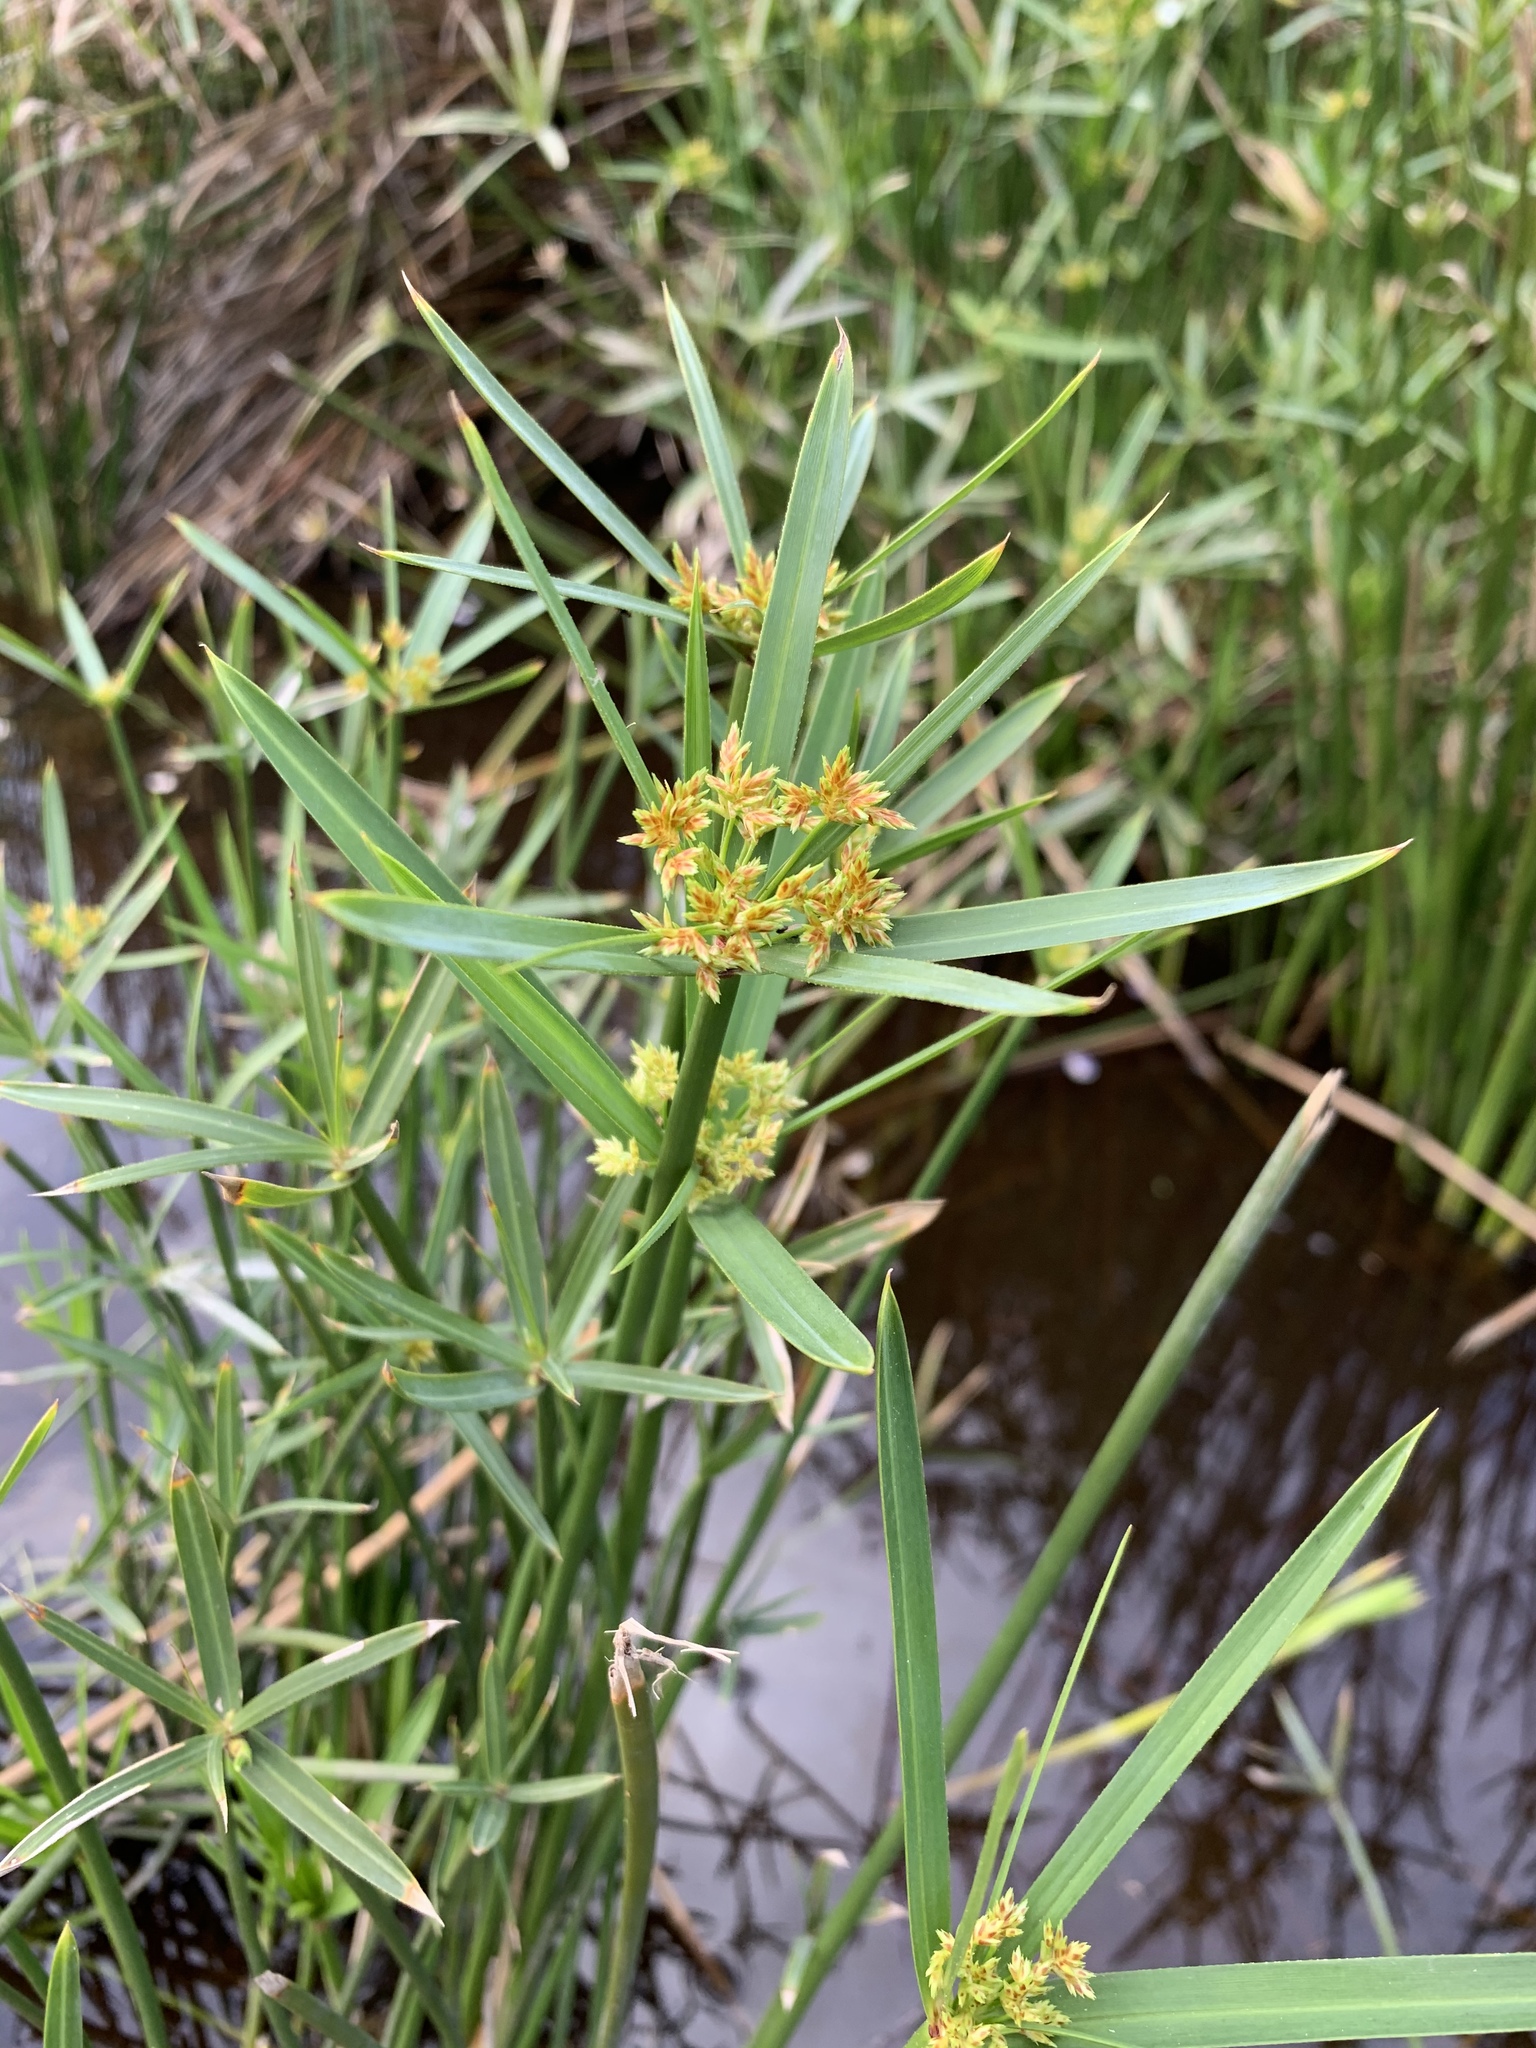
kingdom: Plantae
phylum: Tracheophyta
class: Liliopsida
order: Poales
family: Cyperaceae
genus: Cyperus
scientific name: Cyperus textilis
